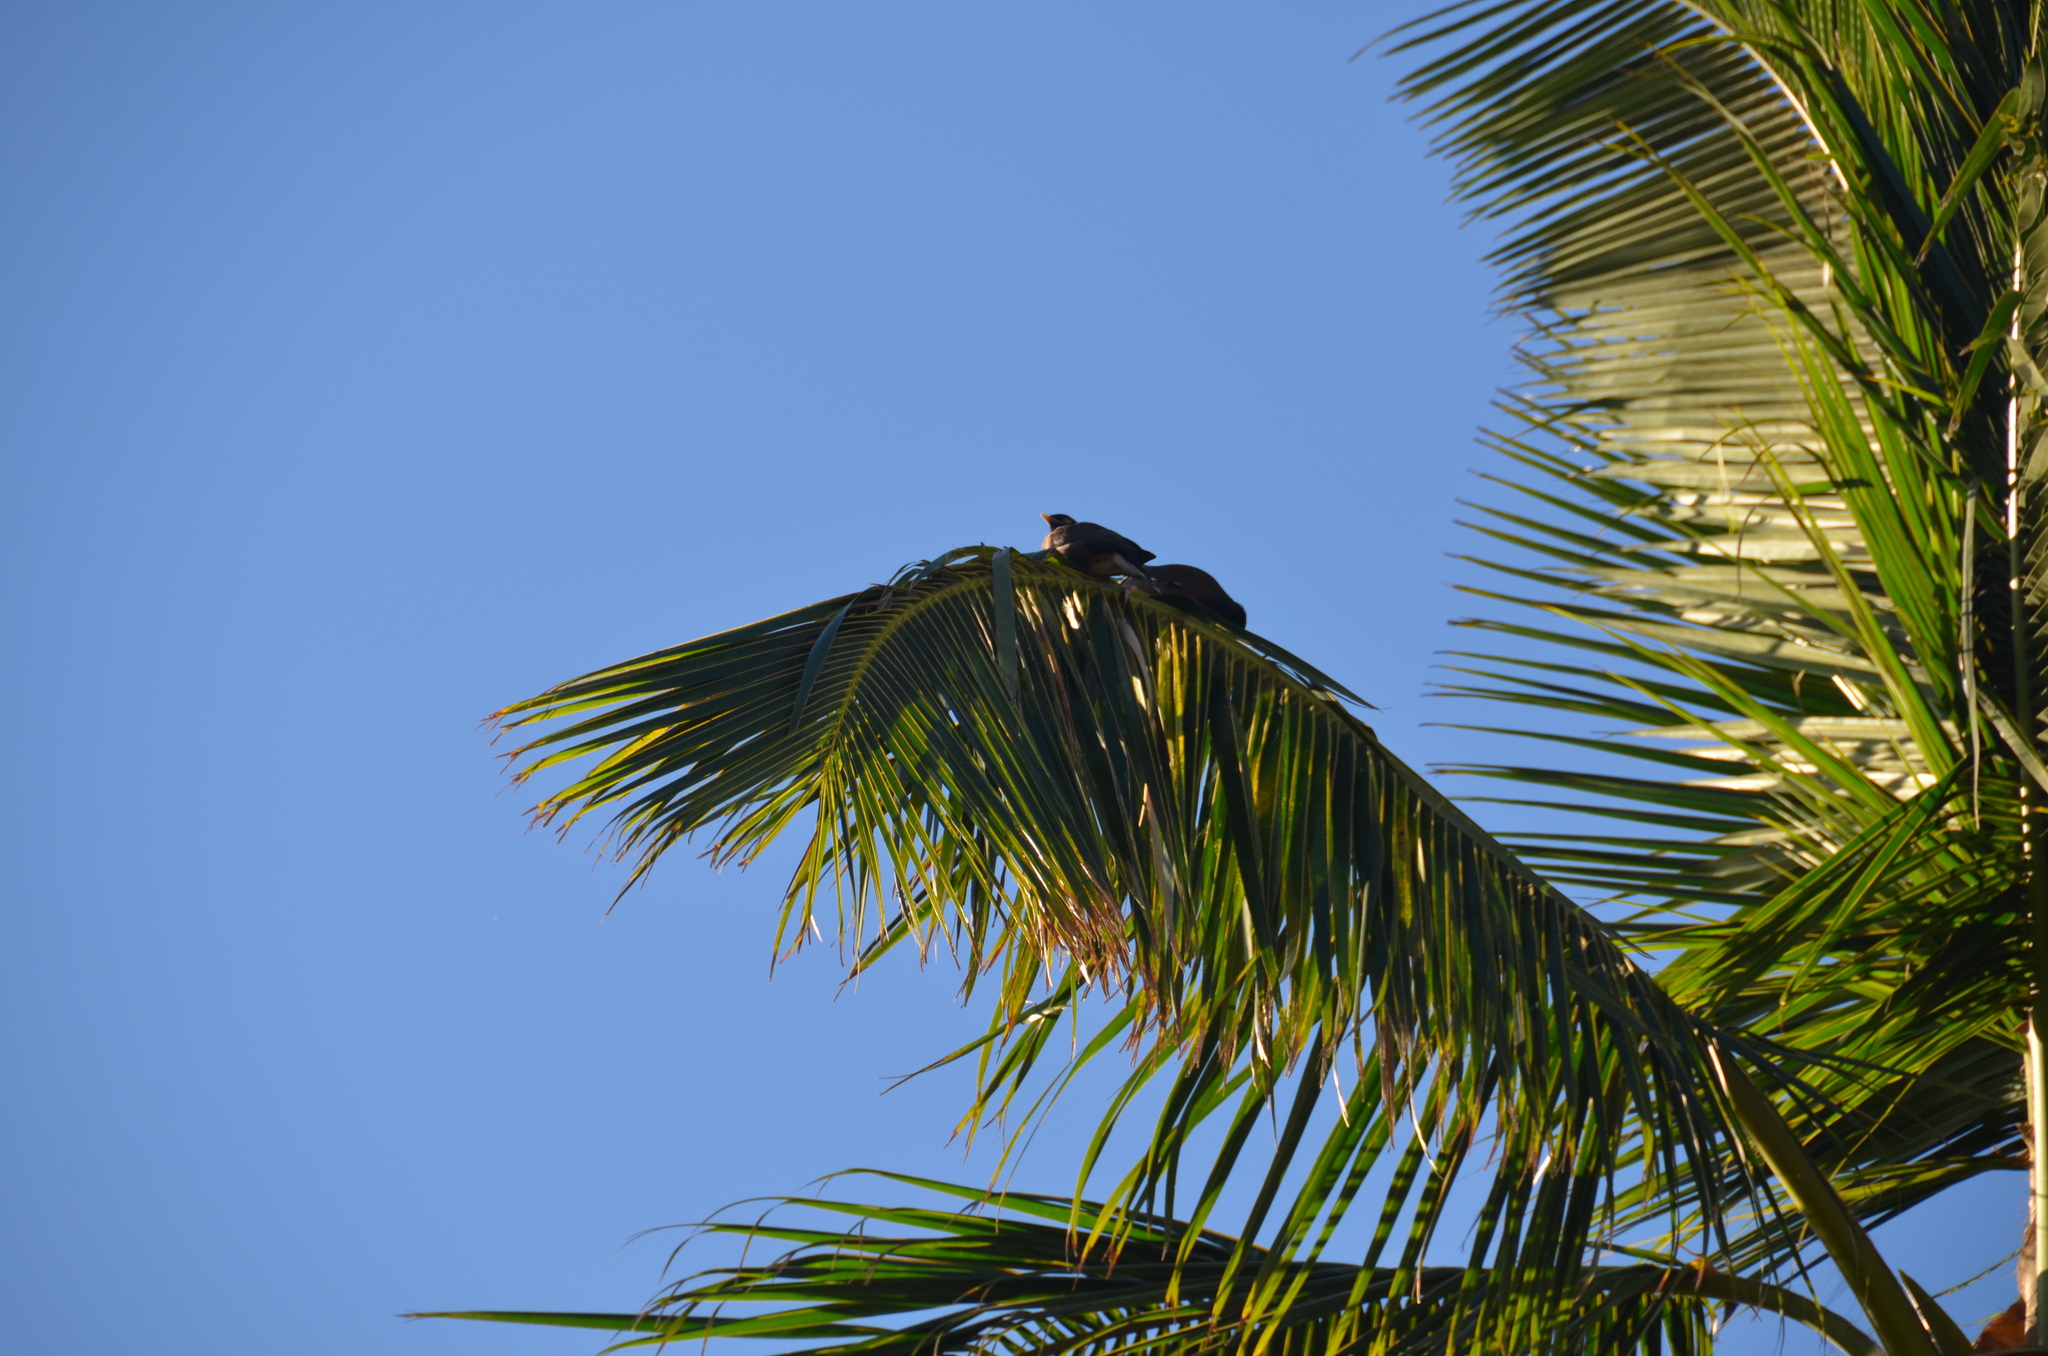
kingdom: Animalia
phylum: Chordata
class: Aves
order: Passeriformes
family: Sturnidae
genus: Acridotheres
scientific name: Acridotheres tristis
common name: Common myna
